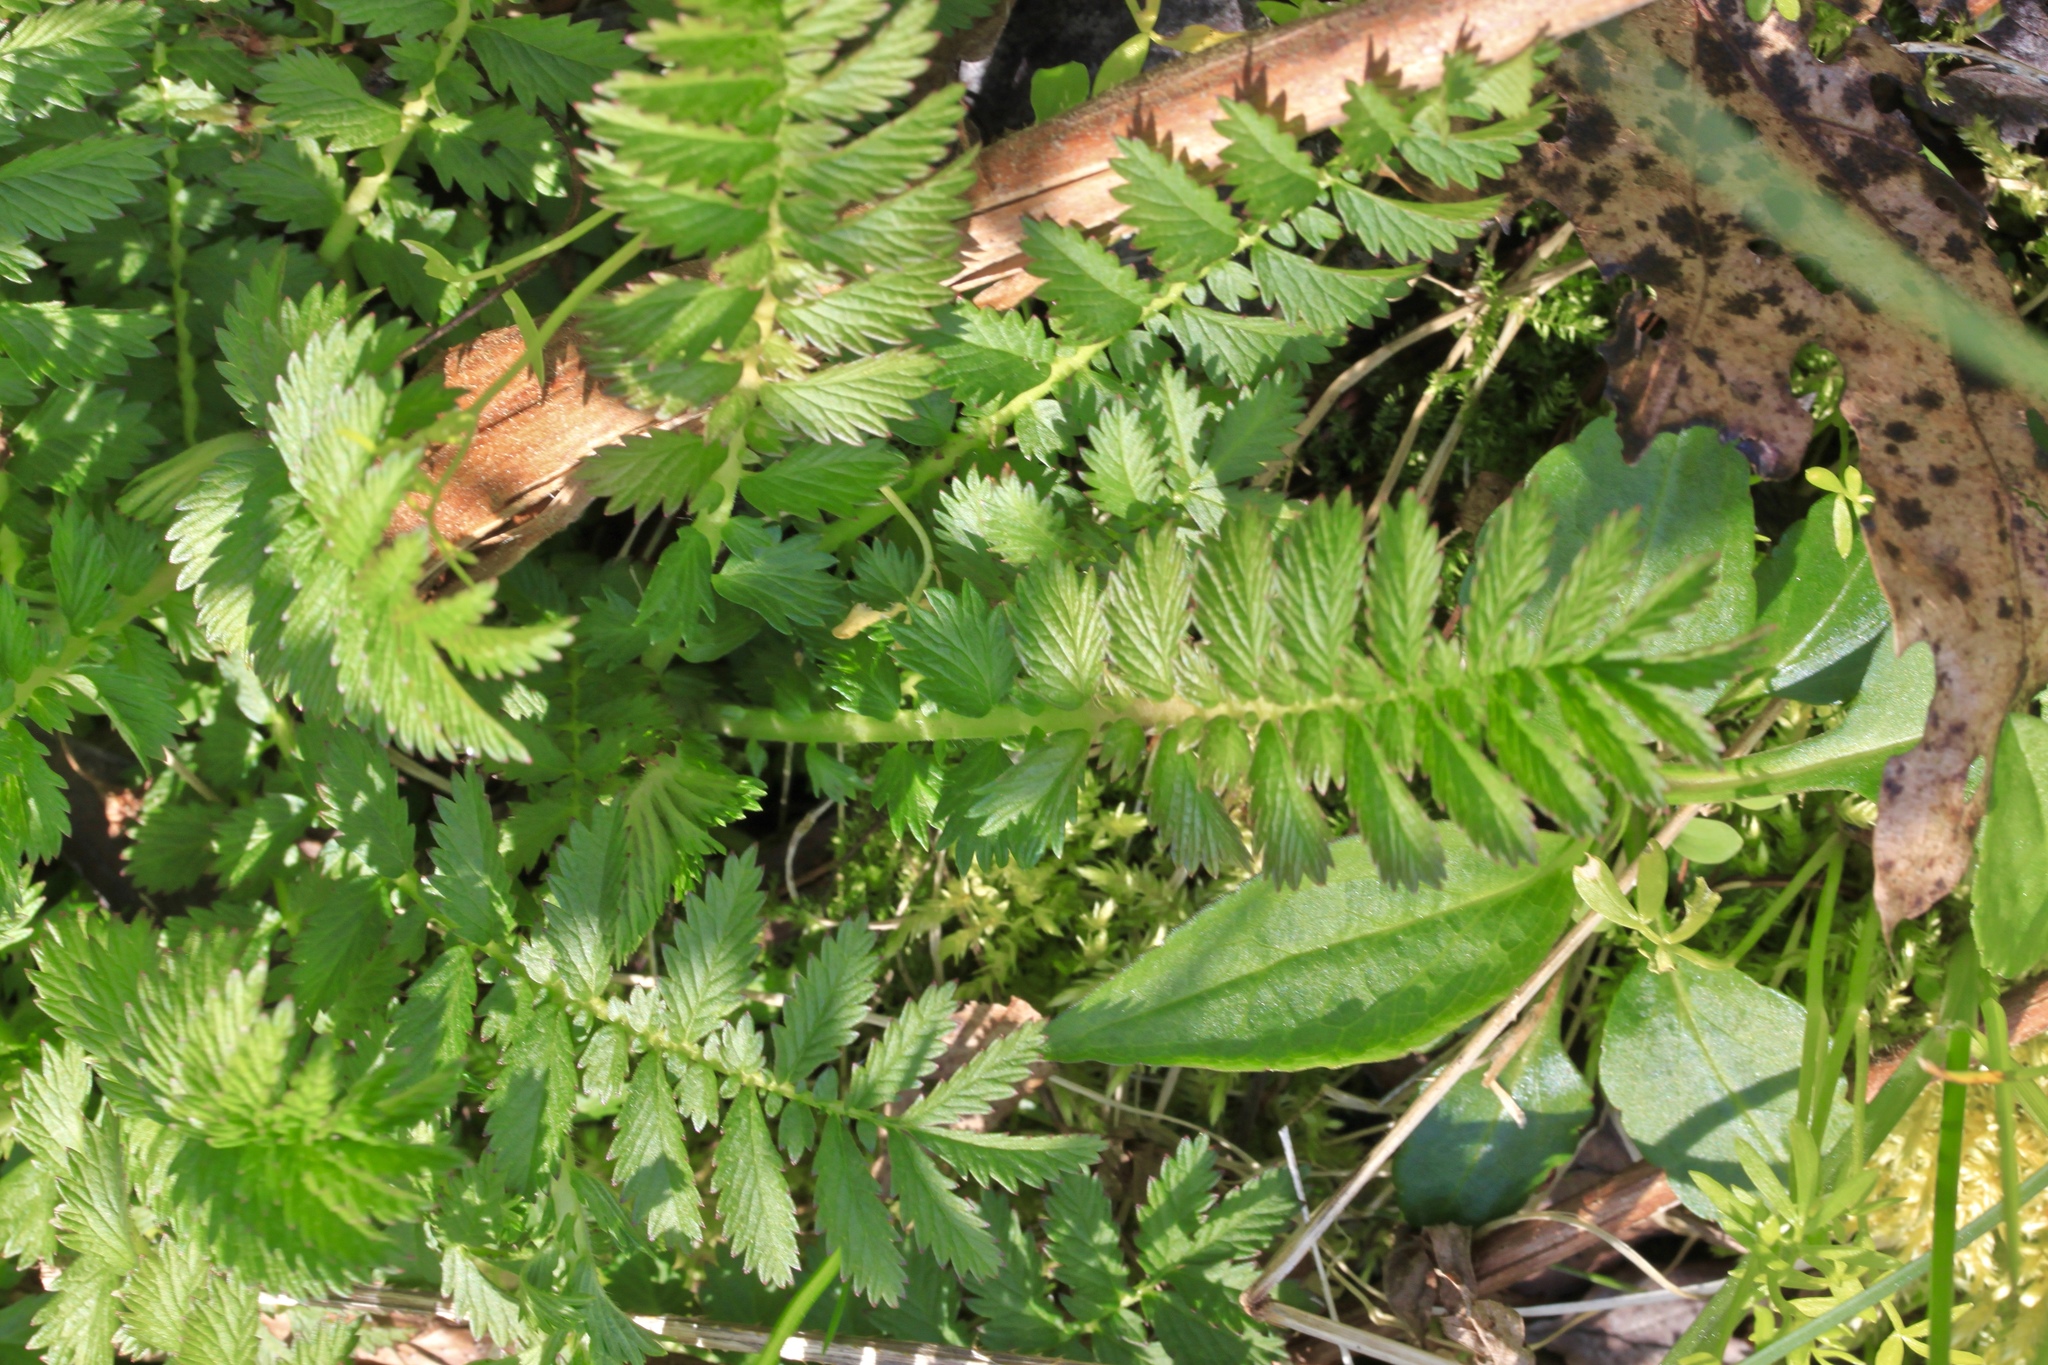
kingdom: Plantae
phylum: Tracheophyta
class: Magnoliopsida
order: Rosales
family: Rosaceae
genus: Agrimonia
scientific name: Agrimonia parviflora
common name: Harvest-lice
